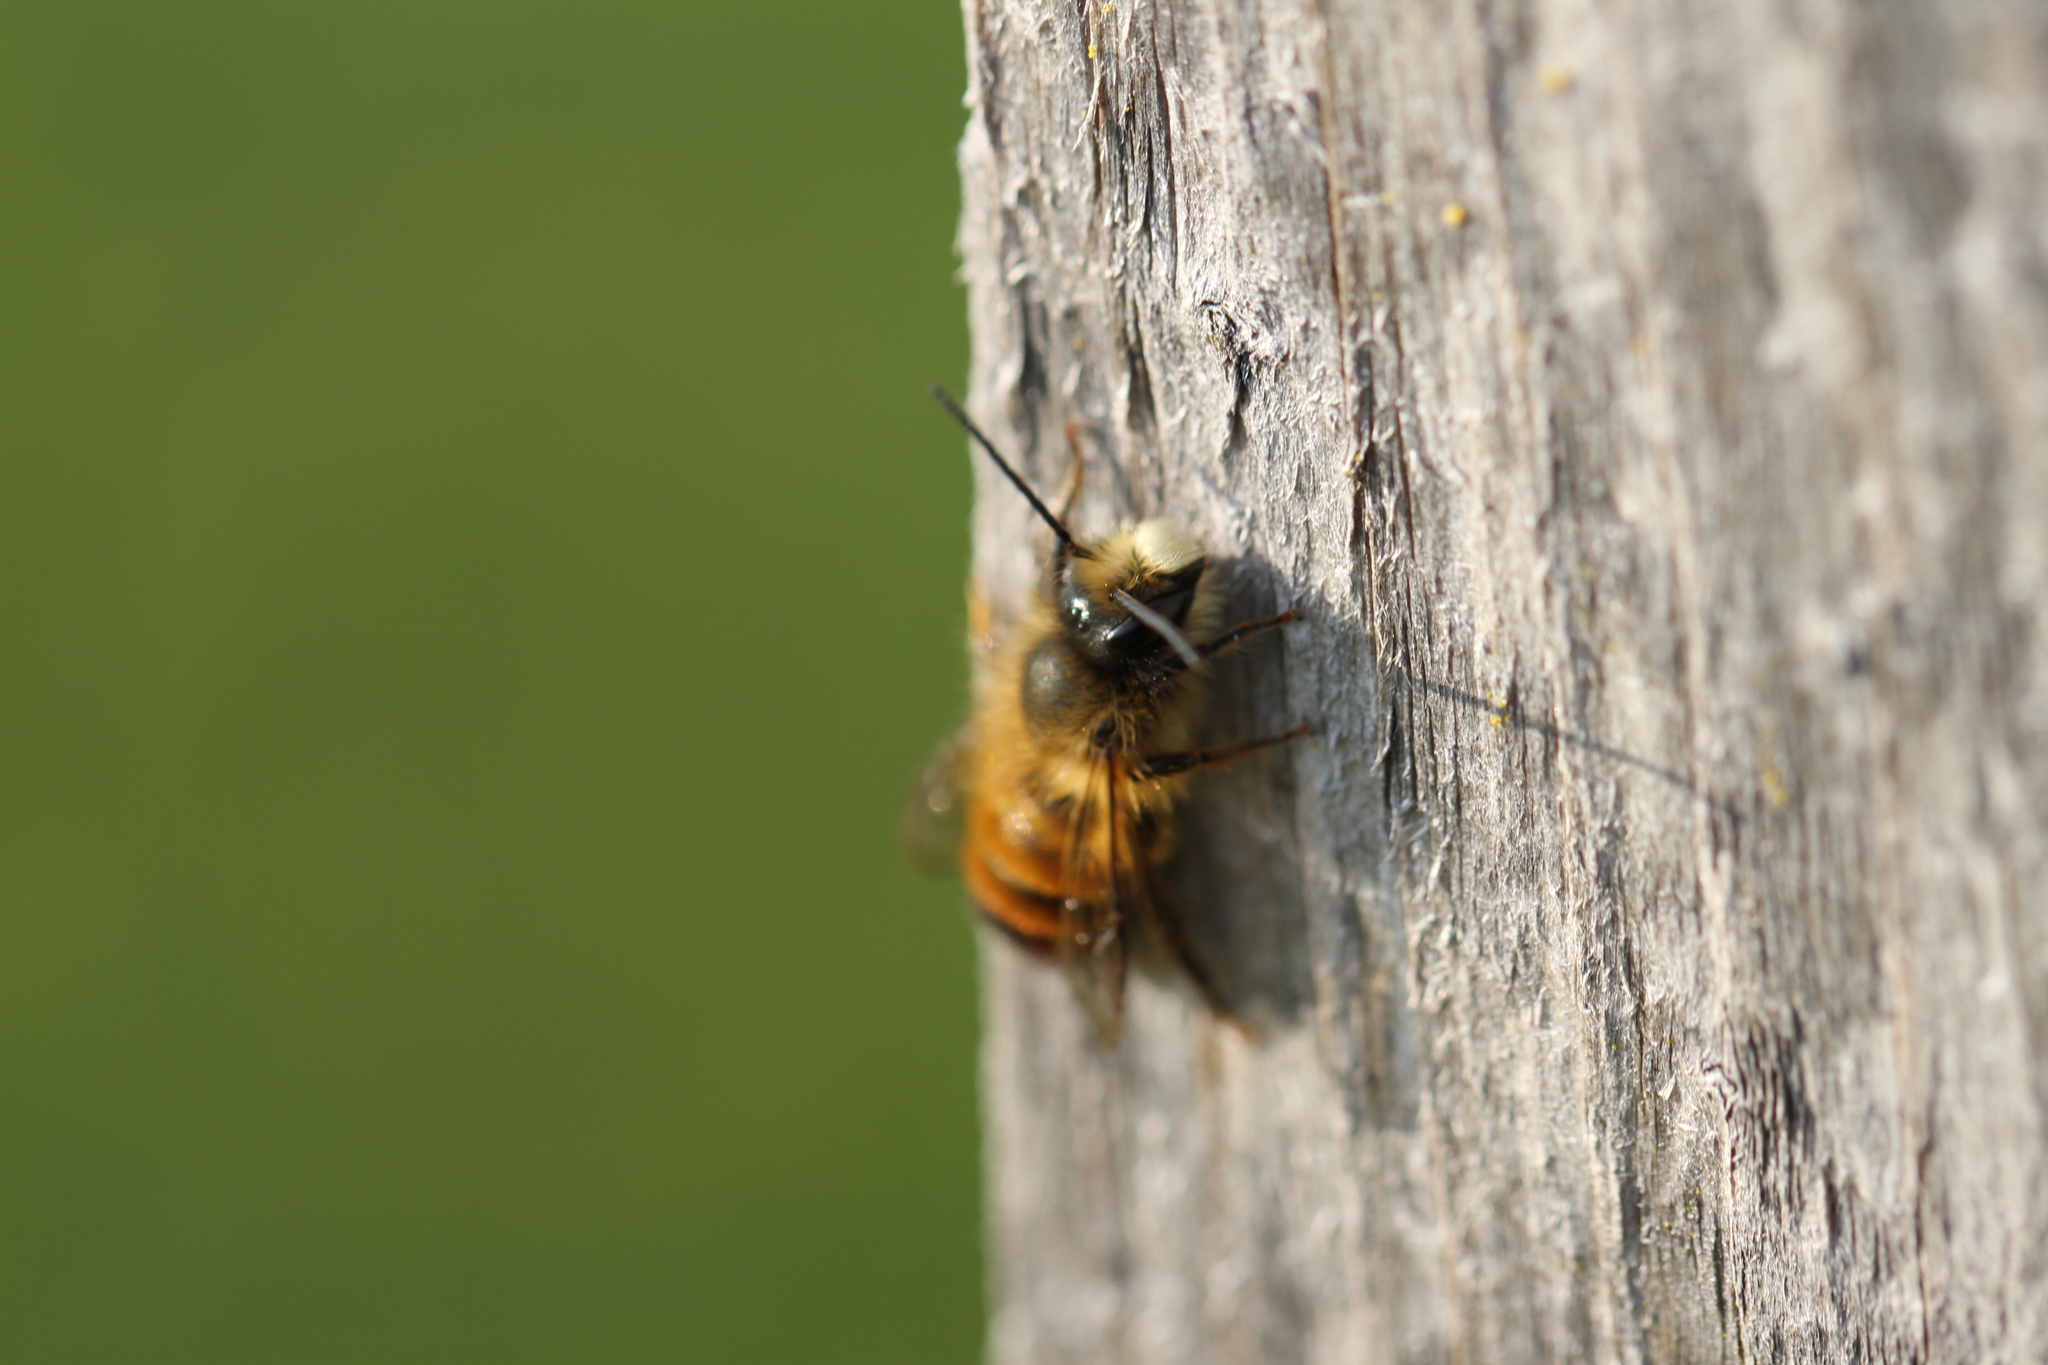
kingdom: Animalia
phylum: Arthropoda
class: Insecta
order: Hymenoptera
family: Megachilidae
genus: Osmia
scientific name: Osmia bicornis
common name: Red mason bee
